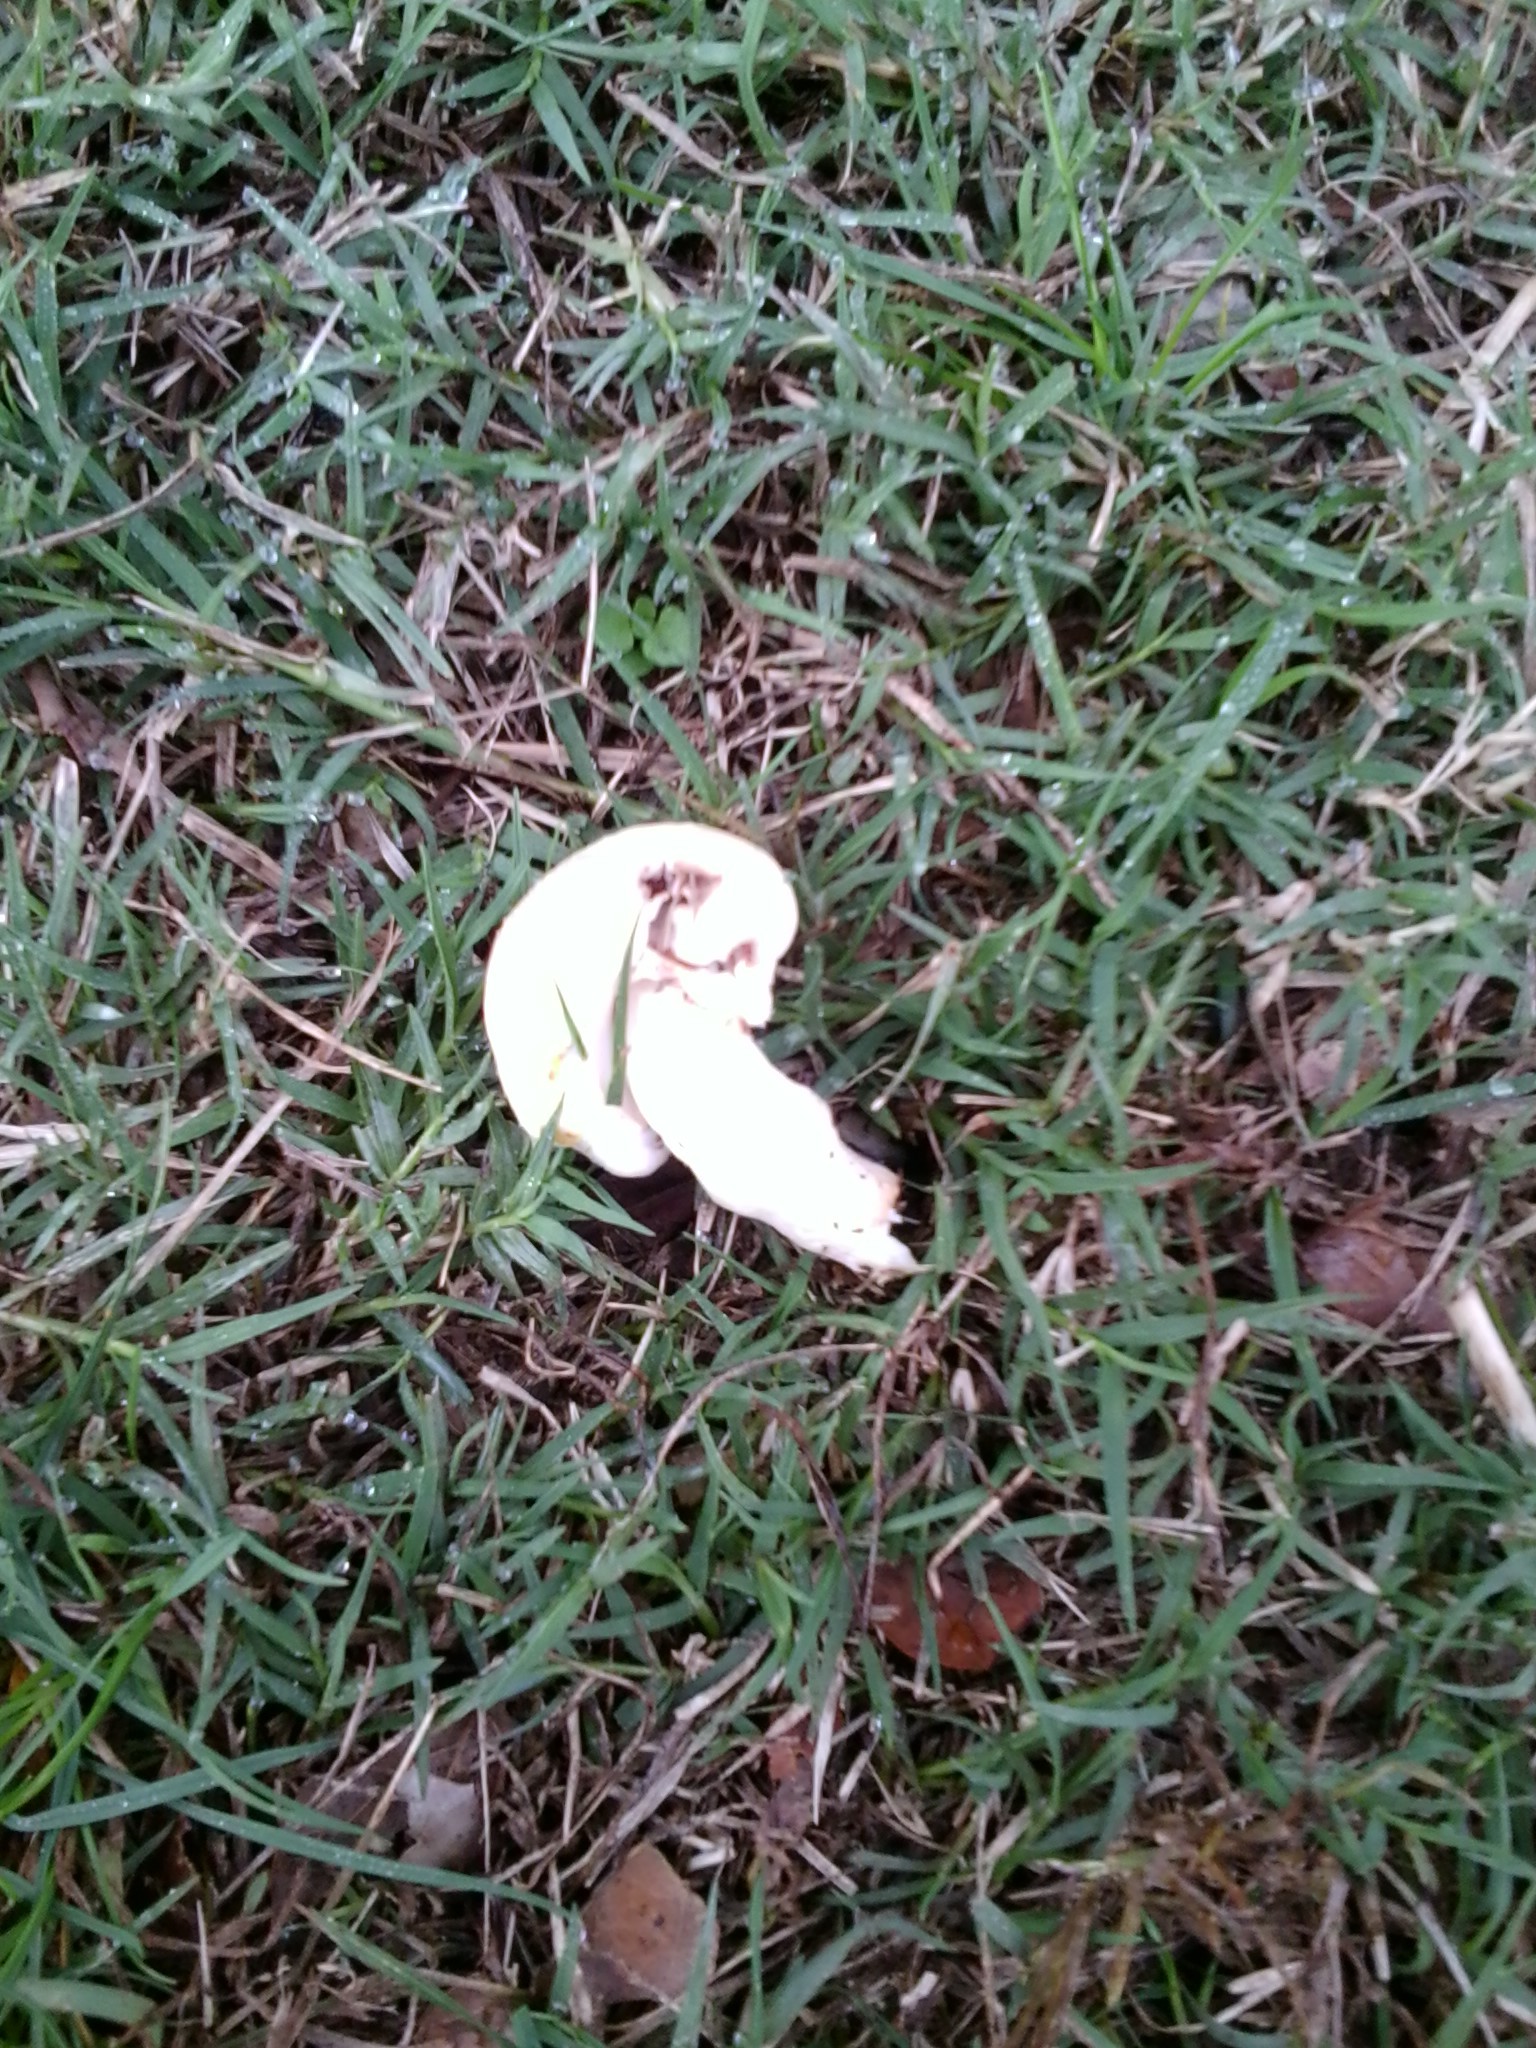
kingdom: Fungi
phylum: Basidiomycota
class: Agaricomycetes
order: Agaricales
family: Agaricaceae
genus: Agaricus
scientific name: Agaricus campestris
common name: Field mushroom
